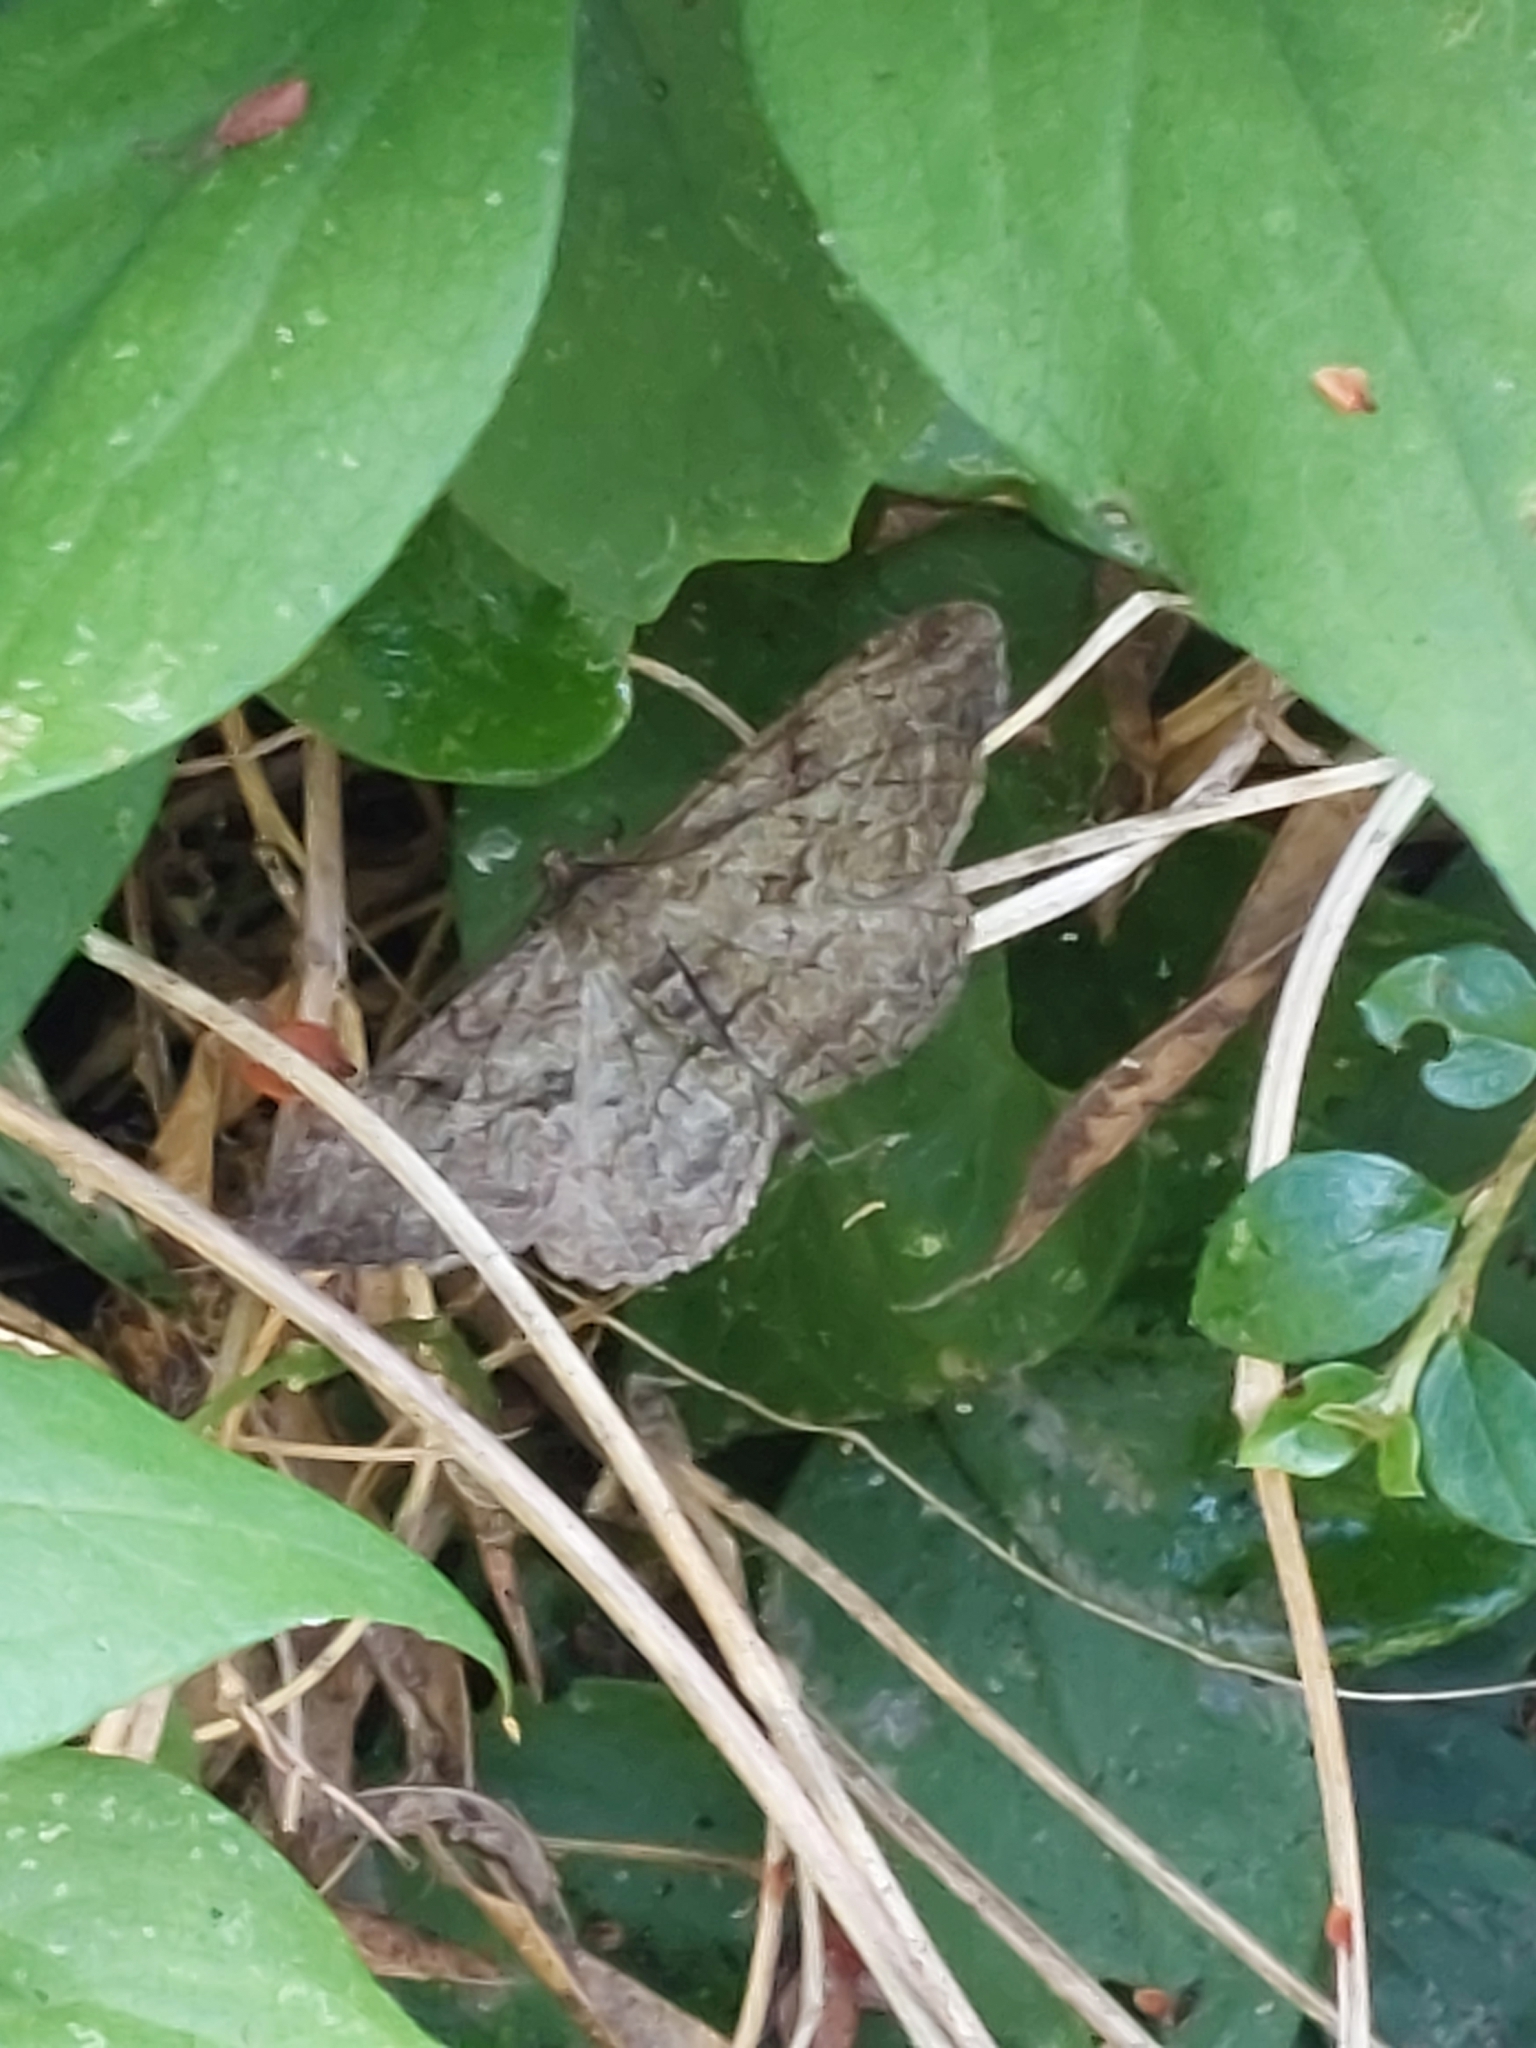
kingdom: Animalia
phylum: Arthropoda
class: Insecta
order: Lepidoptera
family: Geometridae
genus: Peribatodes
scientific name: Peribatodes rhomboidaria
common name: Willow beauty
